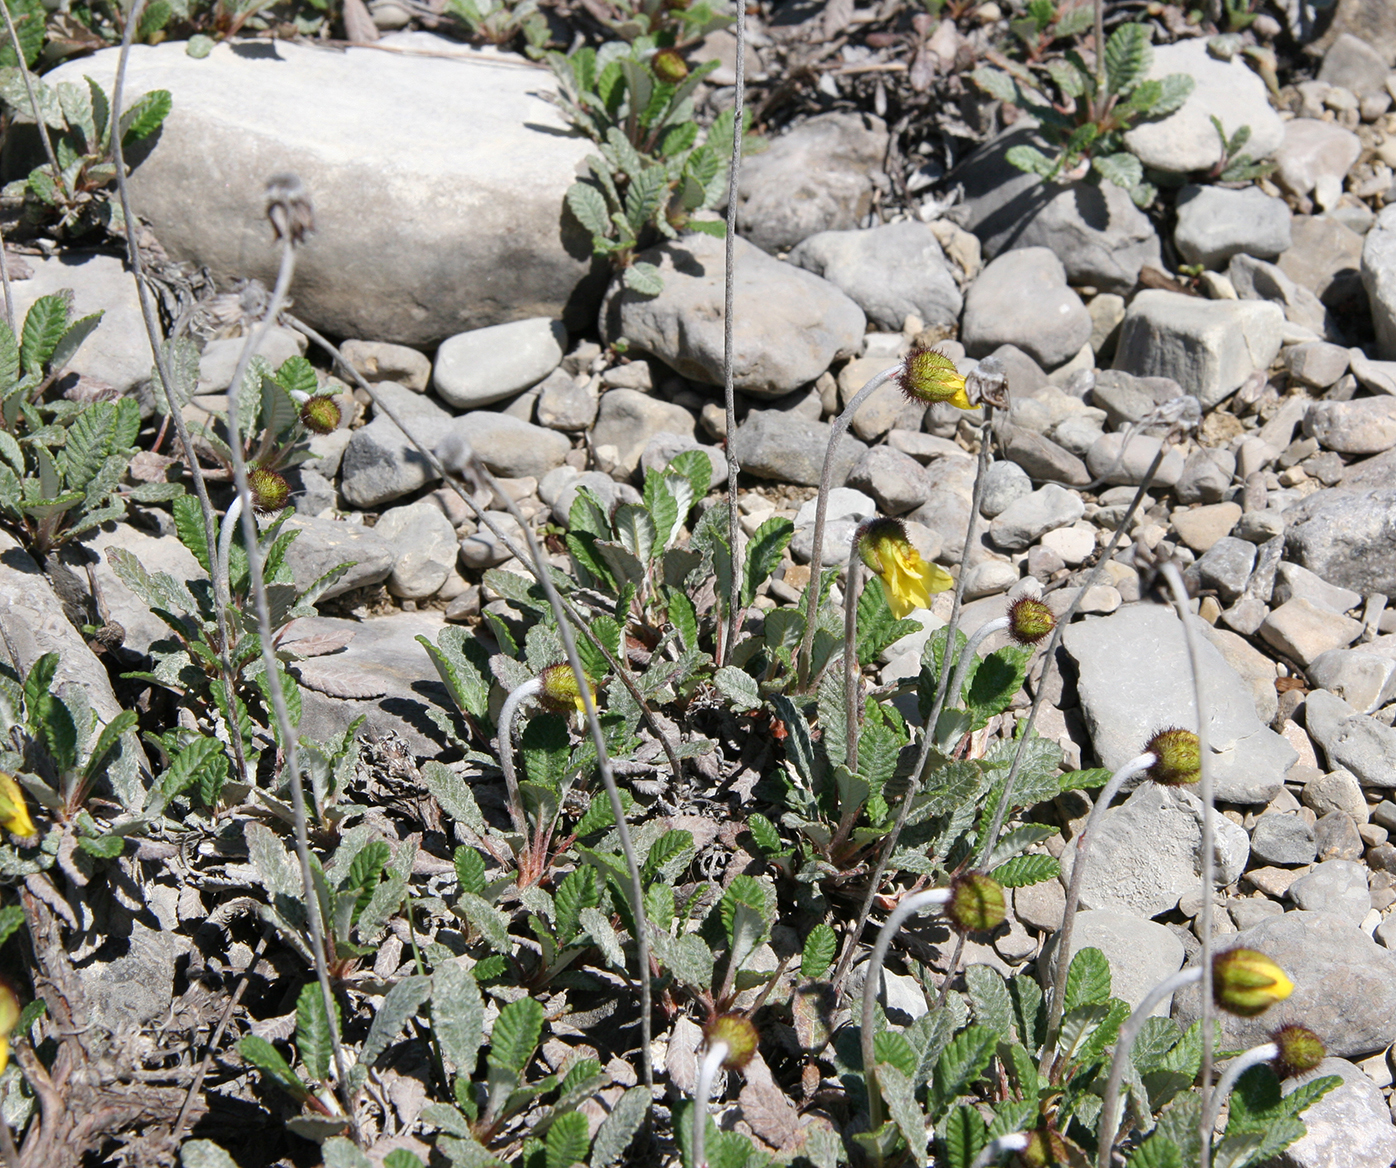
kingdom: Plantae
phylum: Tracheophyta
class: Magnoliopsida
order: Rosales
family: Rosaceae
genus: Dryas
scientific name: Dryas drummondii
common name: Drummond's dryad
